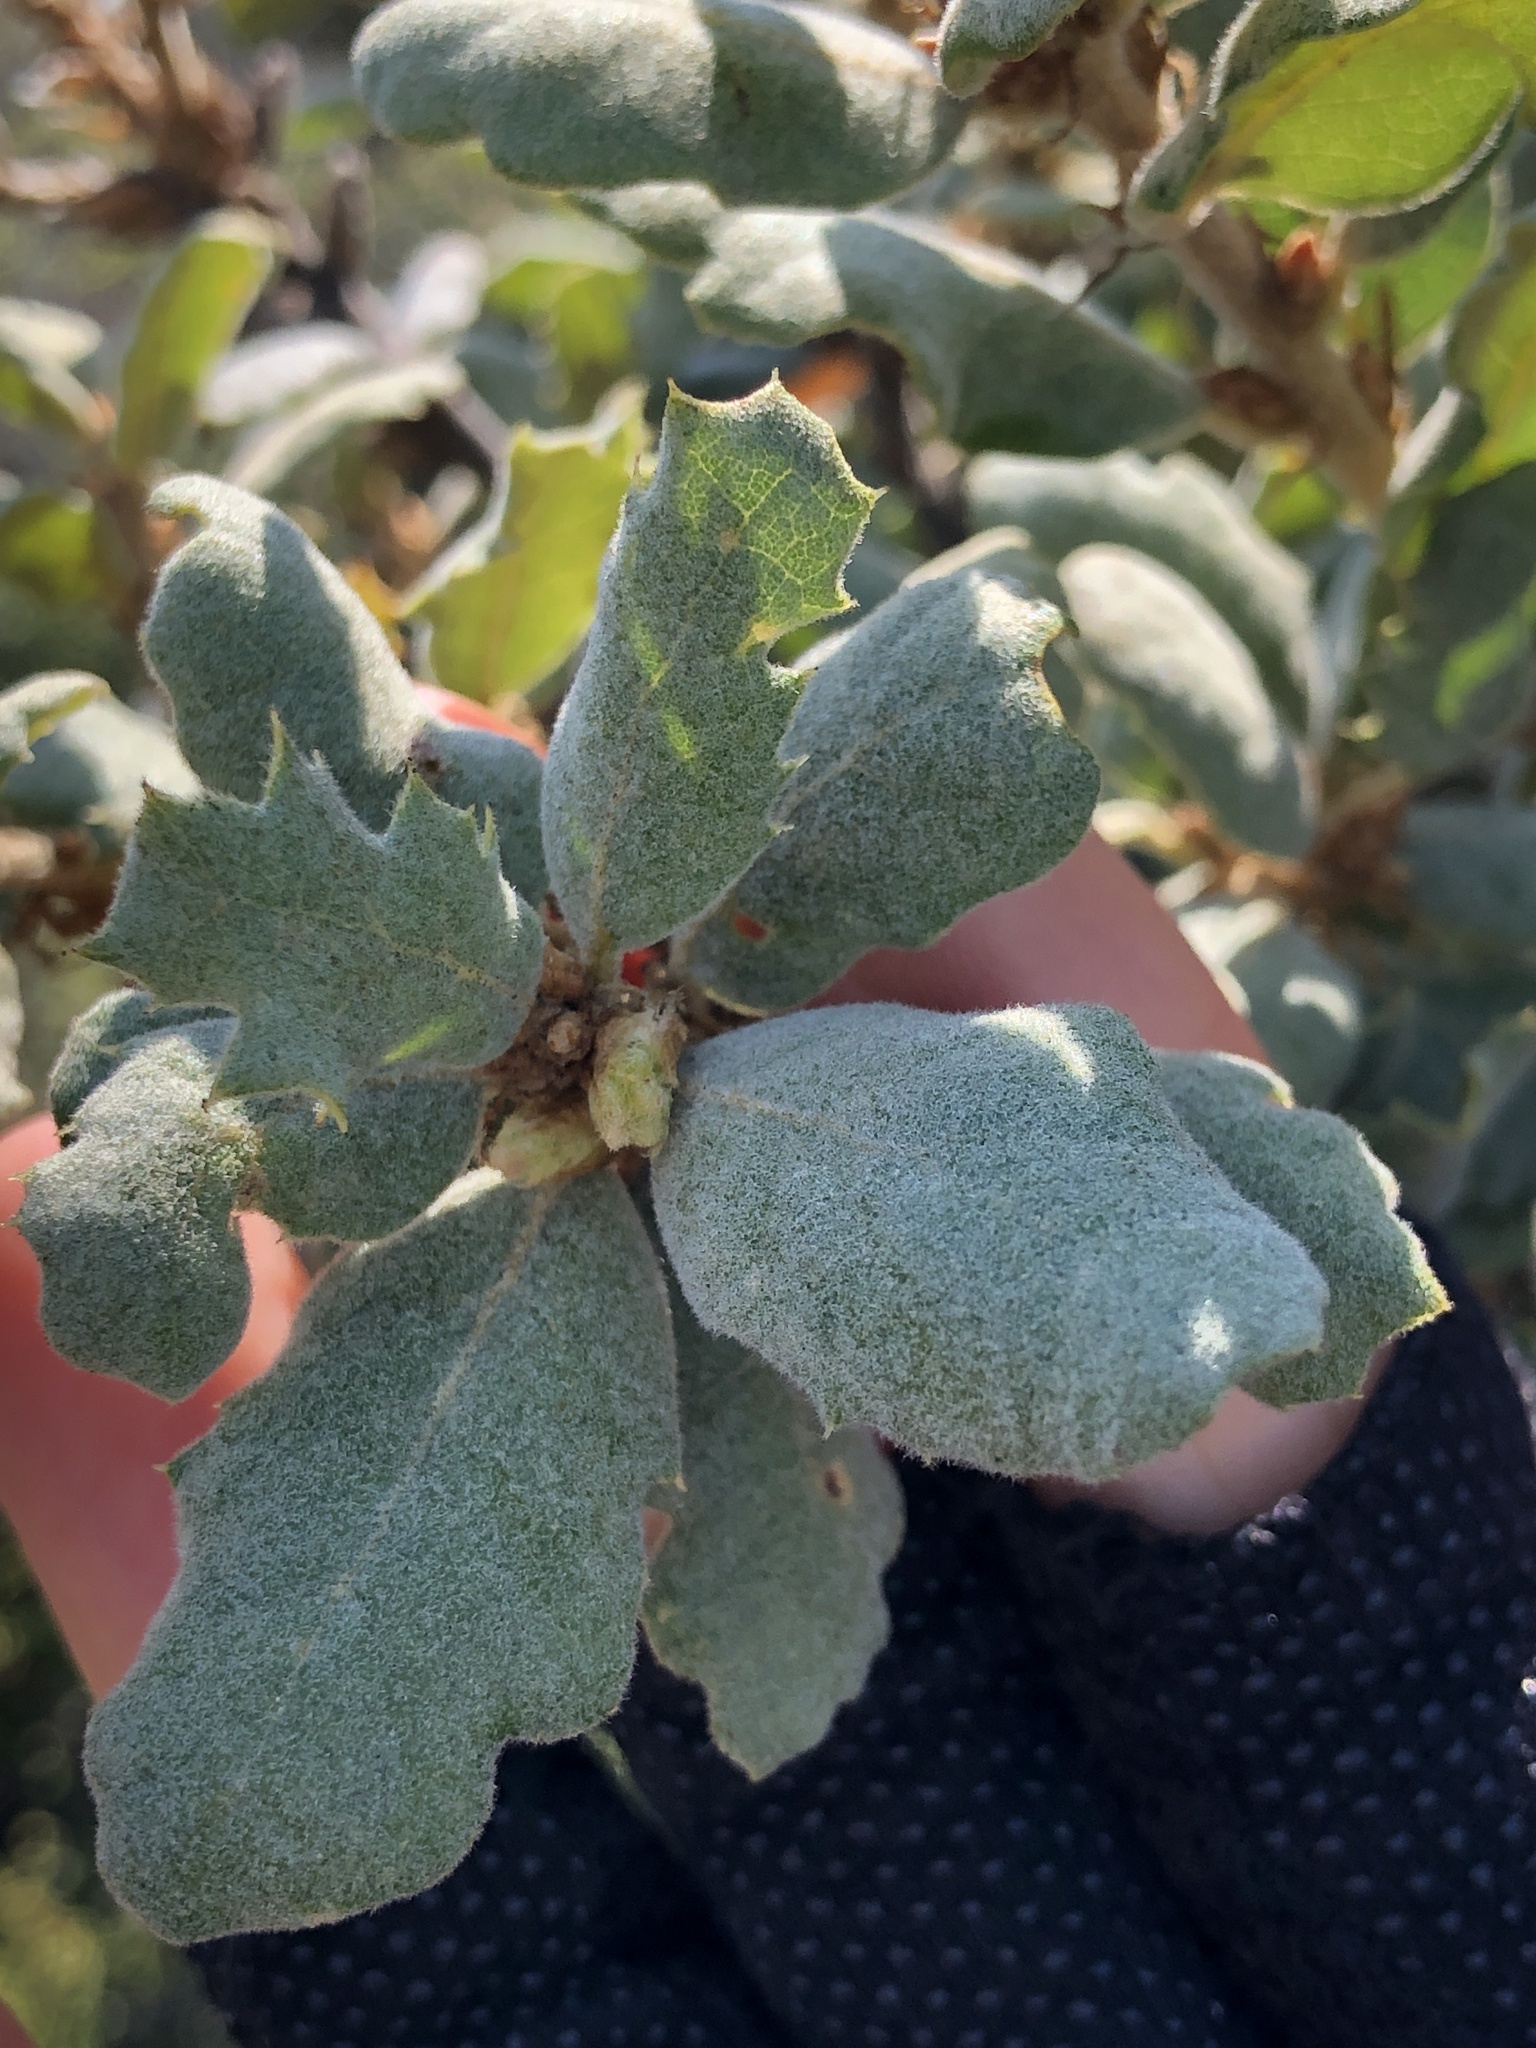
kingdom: Plantae
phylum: Tracheophyta
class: Magnoliopsida
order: Fagales
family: Fagaceae
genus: Quercus
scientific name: Quercus durata
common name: Leather oak
